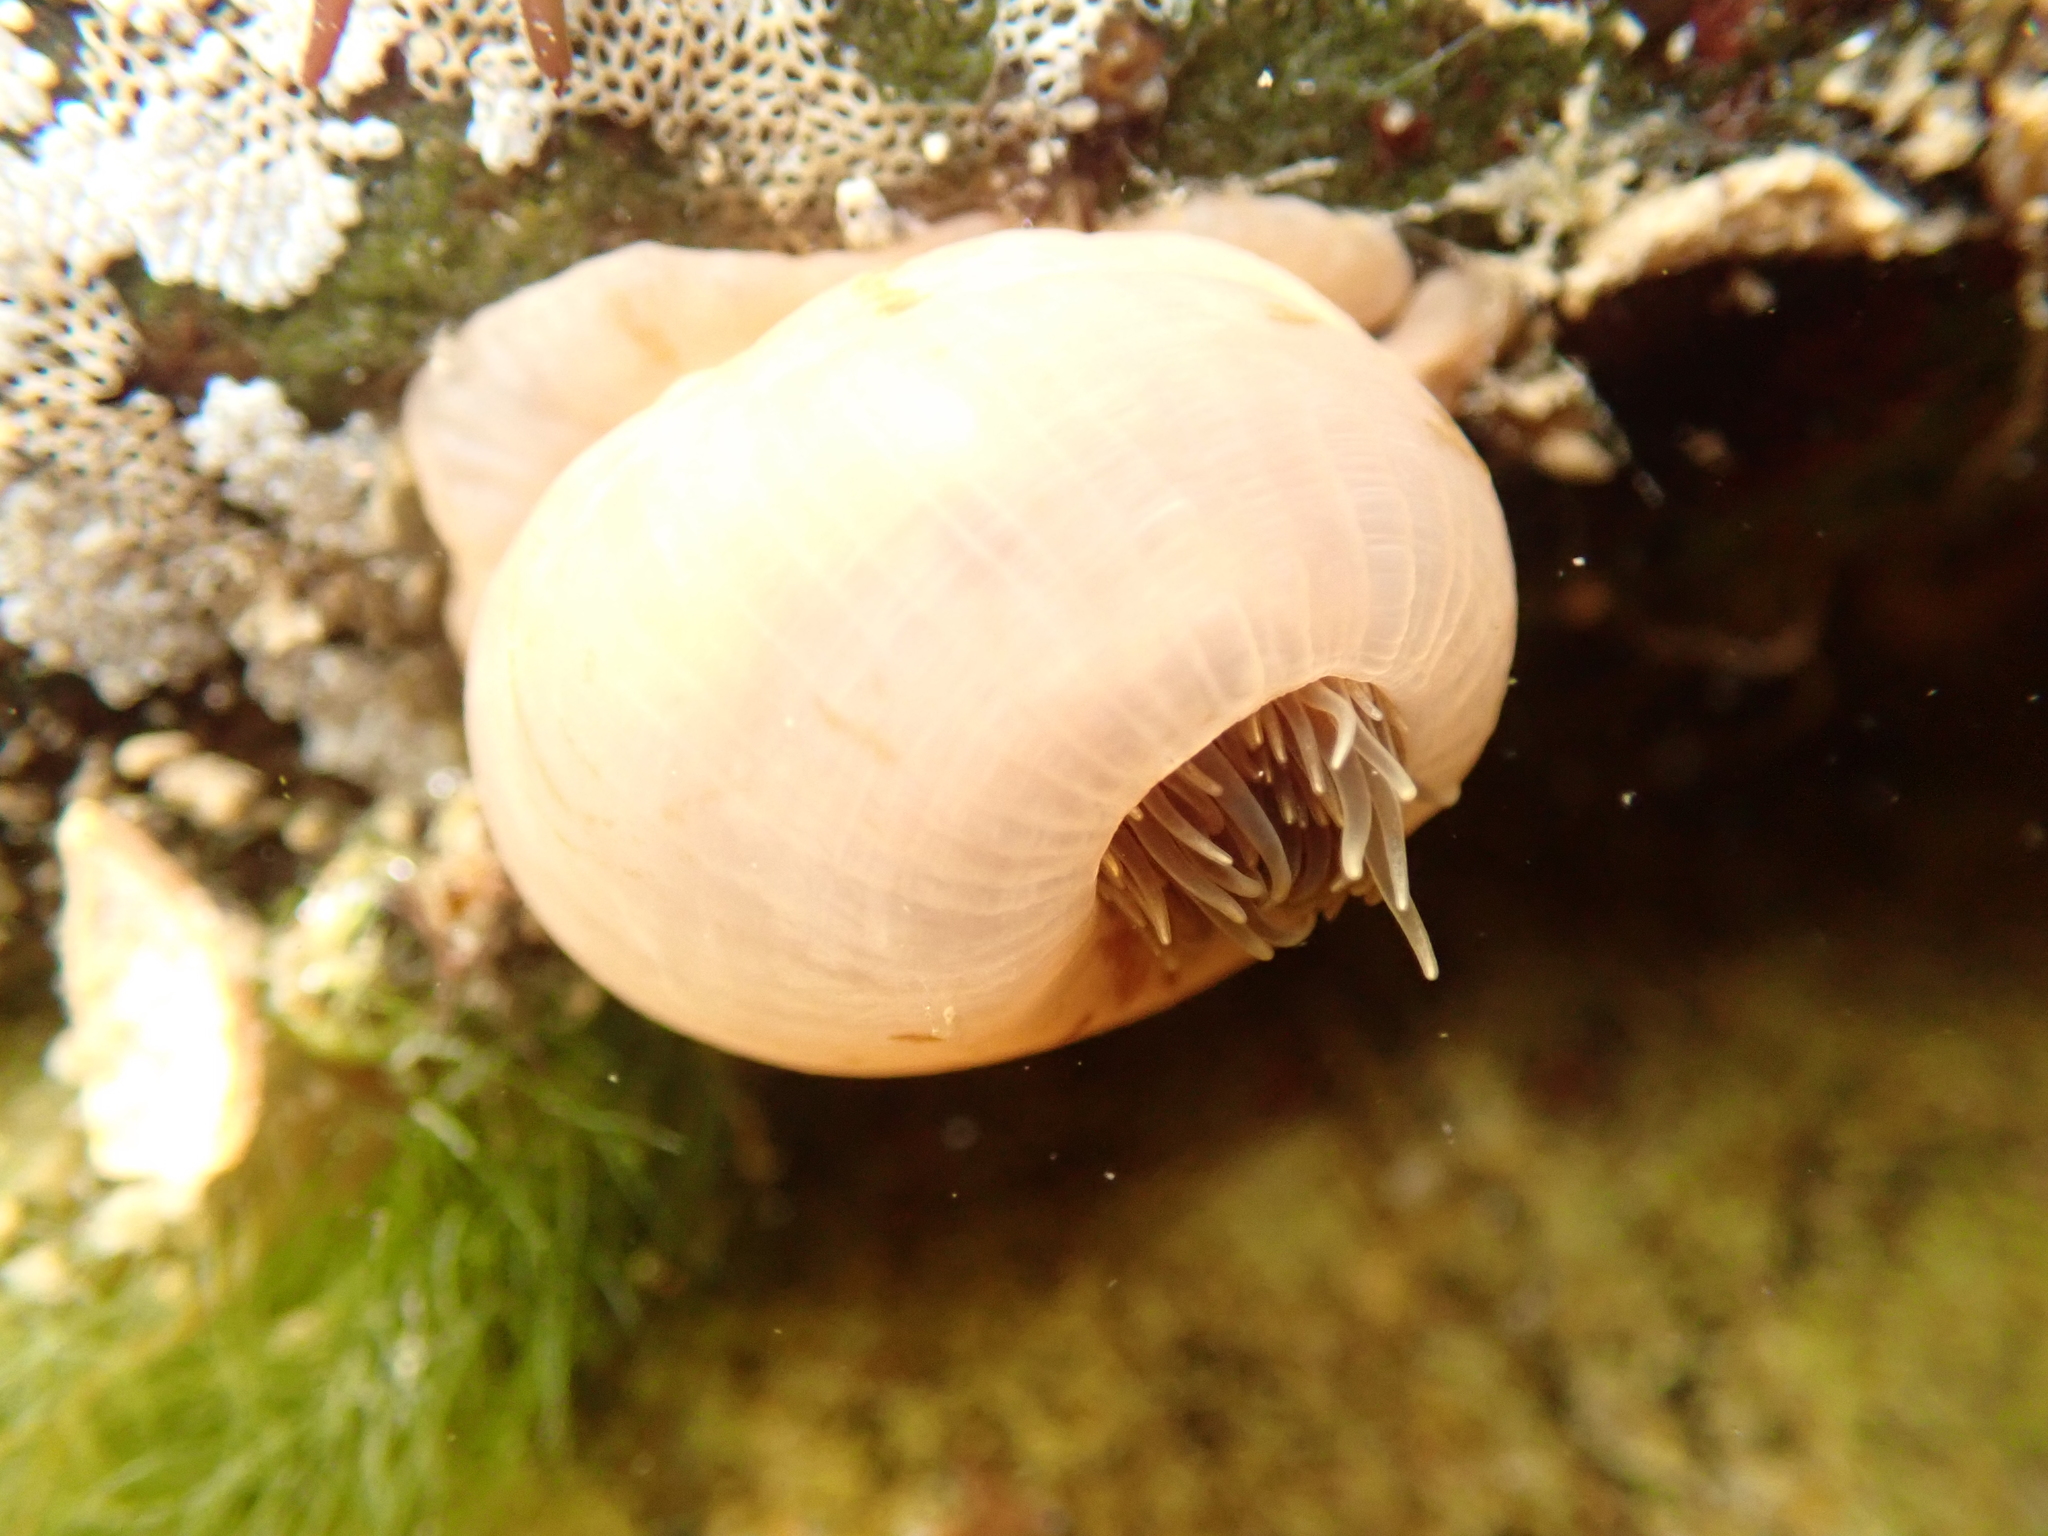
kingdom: Animalia
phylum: Cnidaria
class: Anthozoa
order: Actiniaria
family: Metridiidae
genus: Metridium
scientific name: Metridium senile
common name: Clonal plumose anemone
